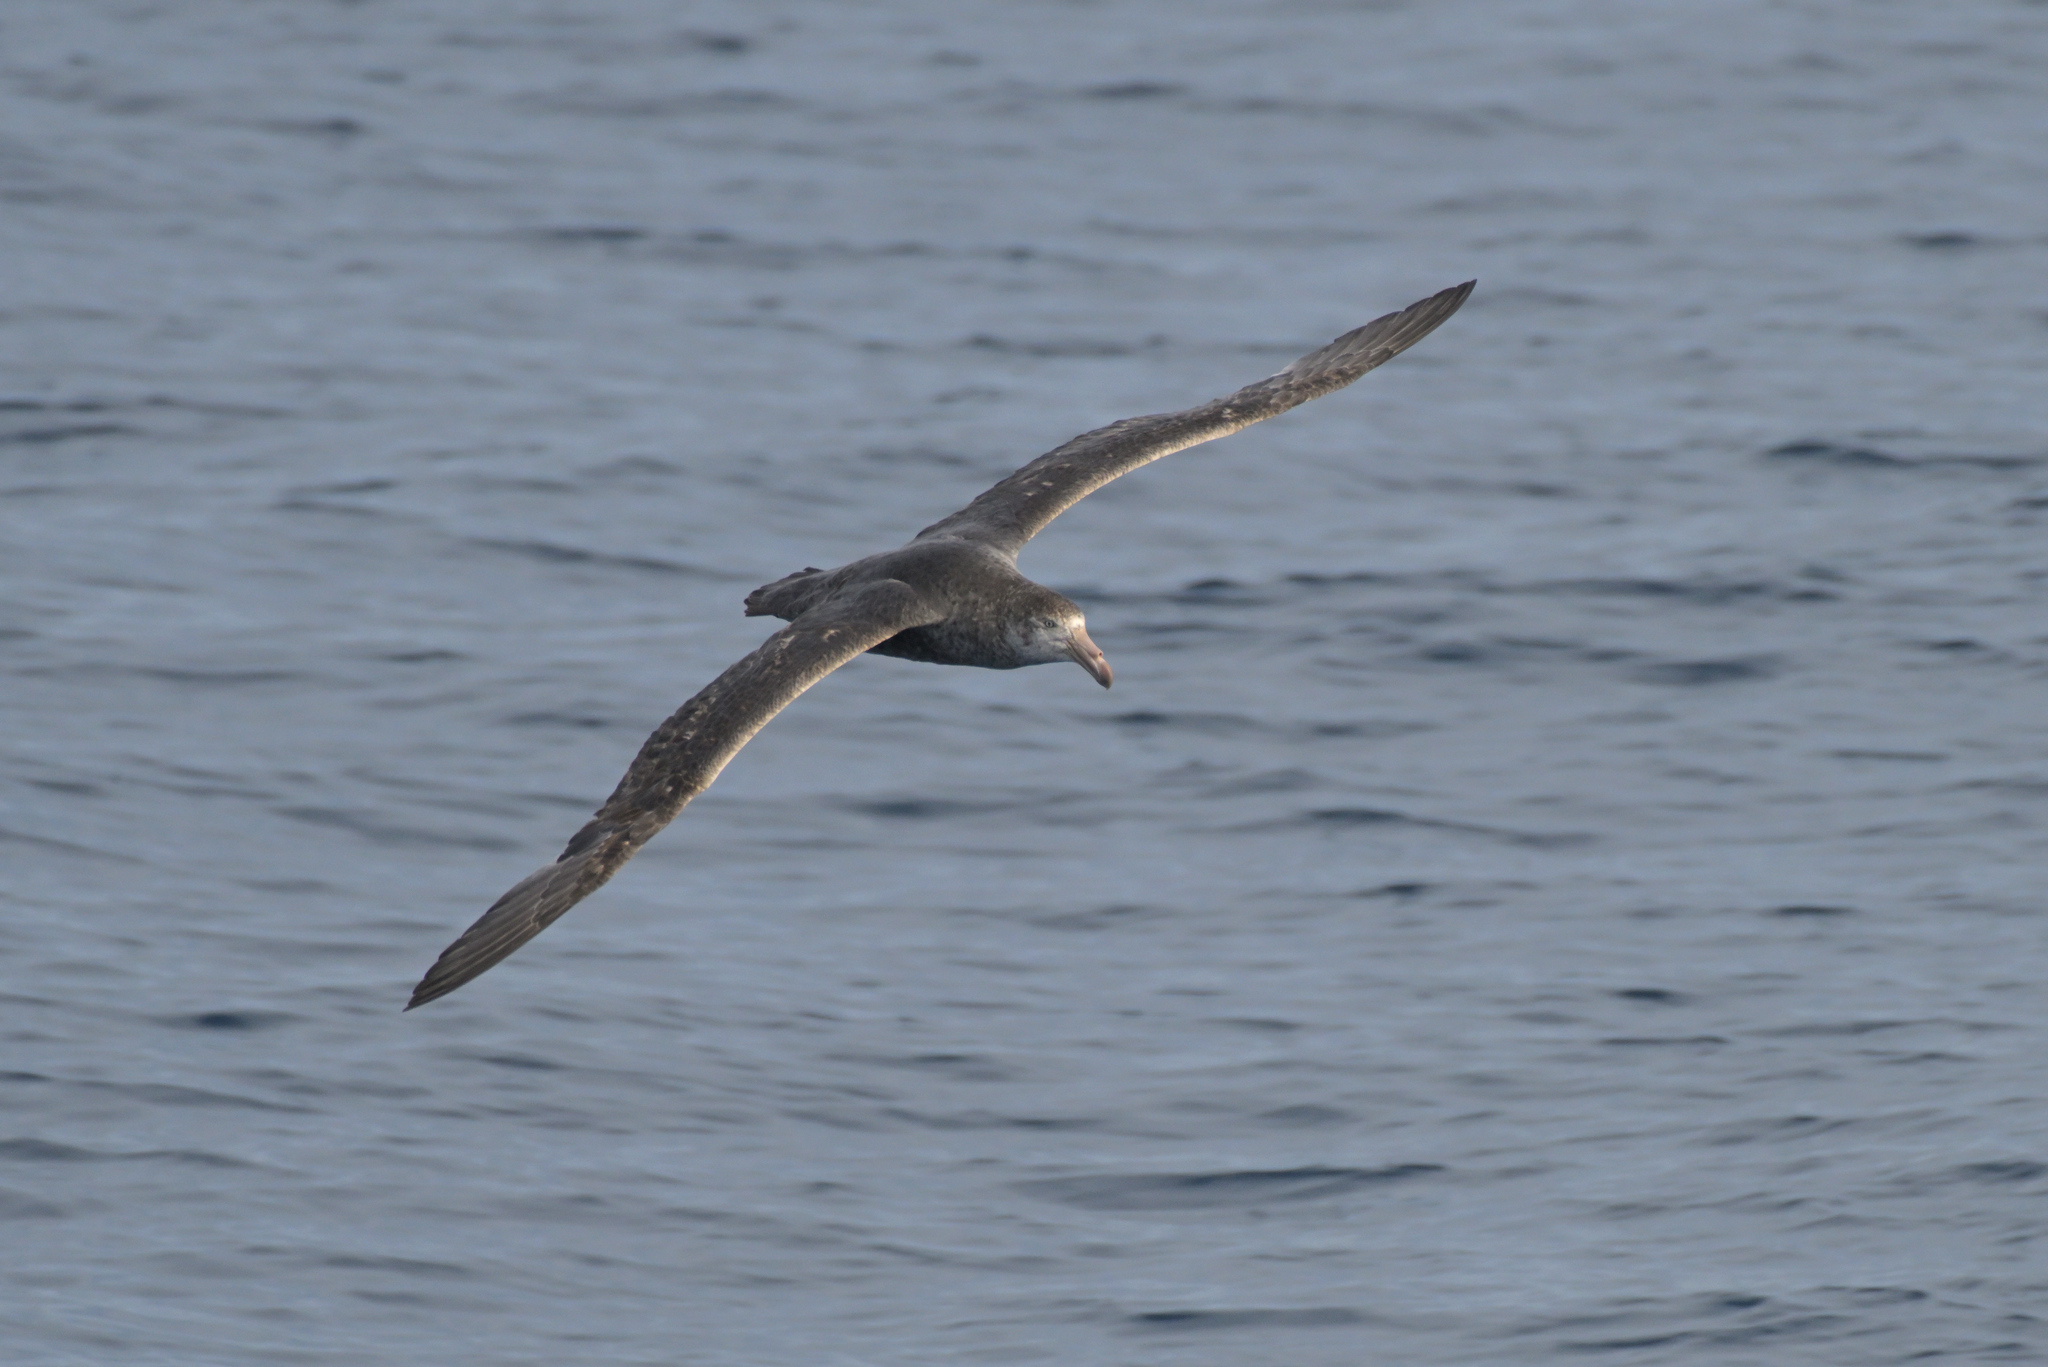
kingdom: Animalia
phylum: Chordata
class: Aves
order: Procellariiformes
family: Procellariidae
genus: Macronectes
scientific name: Macronectes halli
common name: Northern giant petrel
